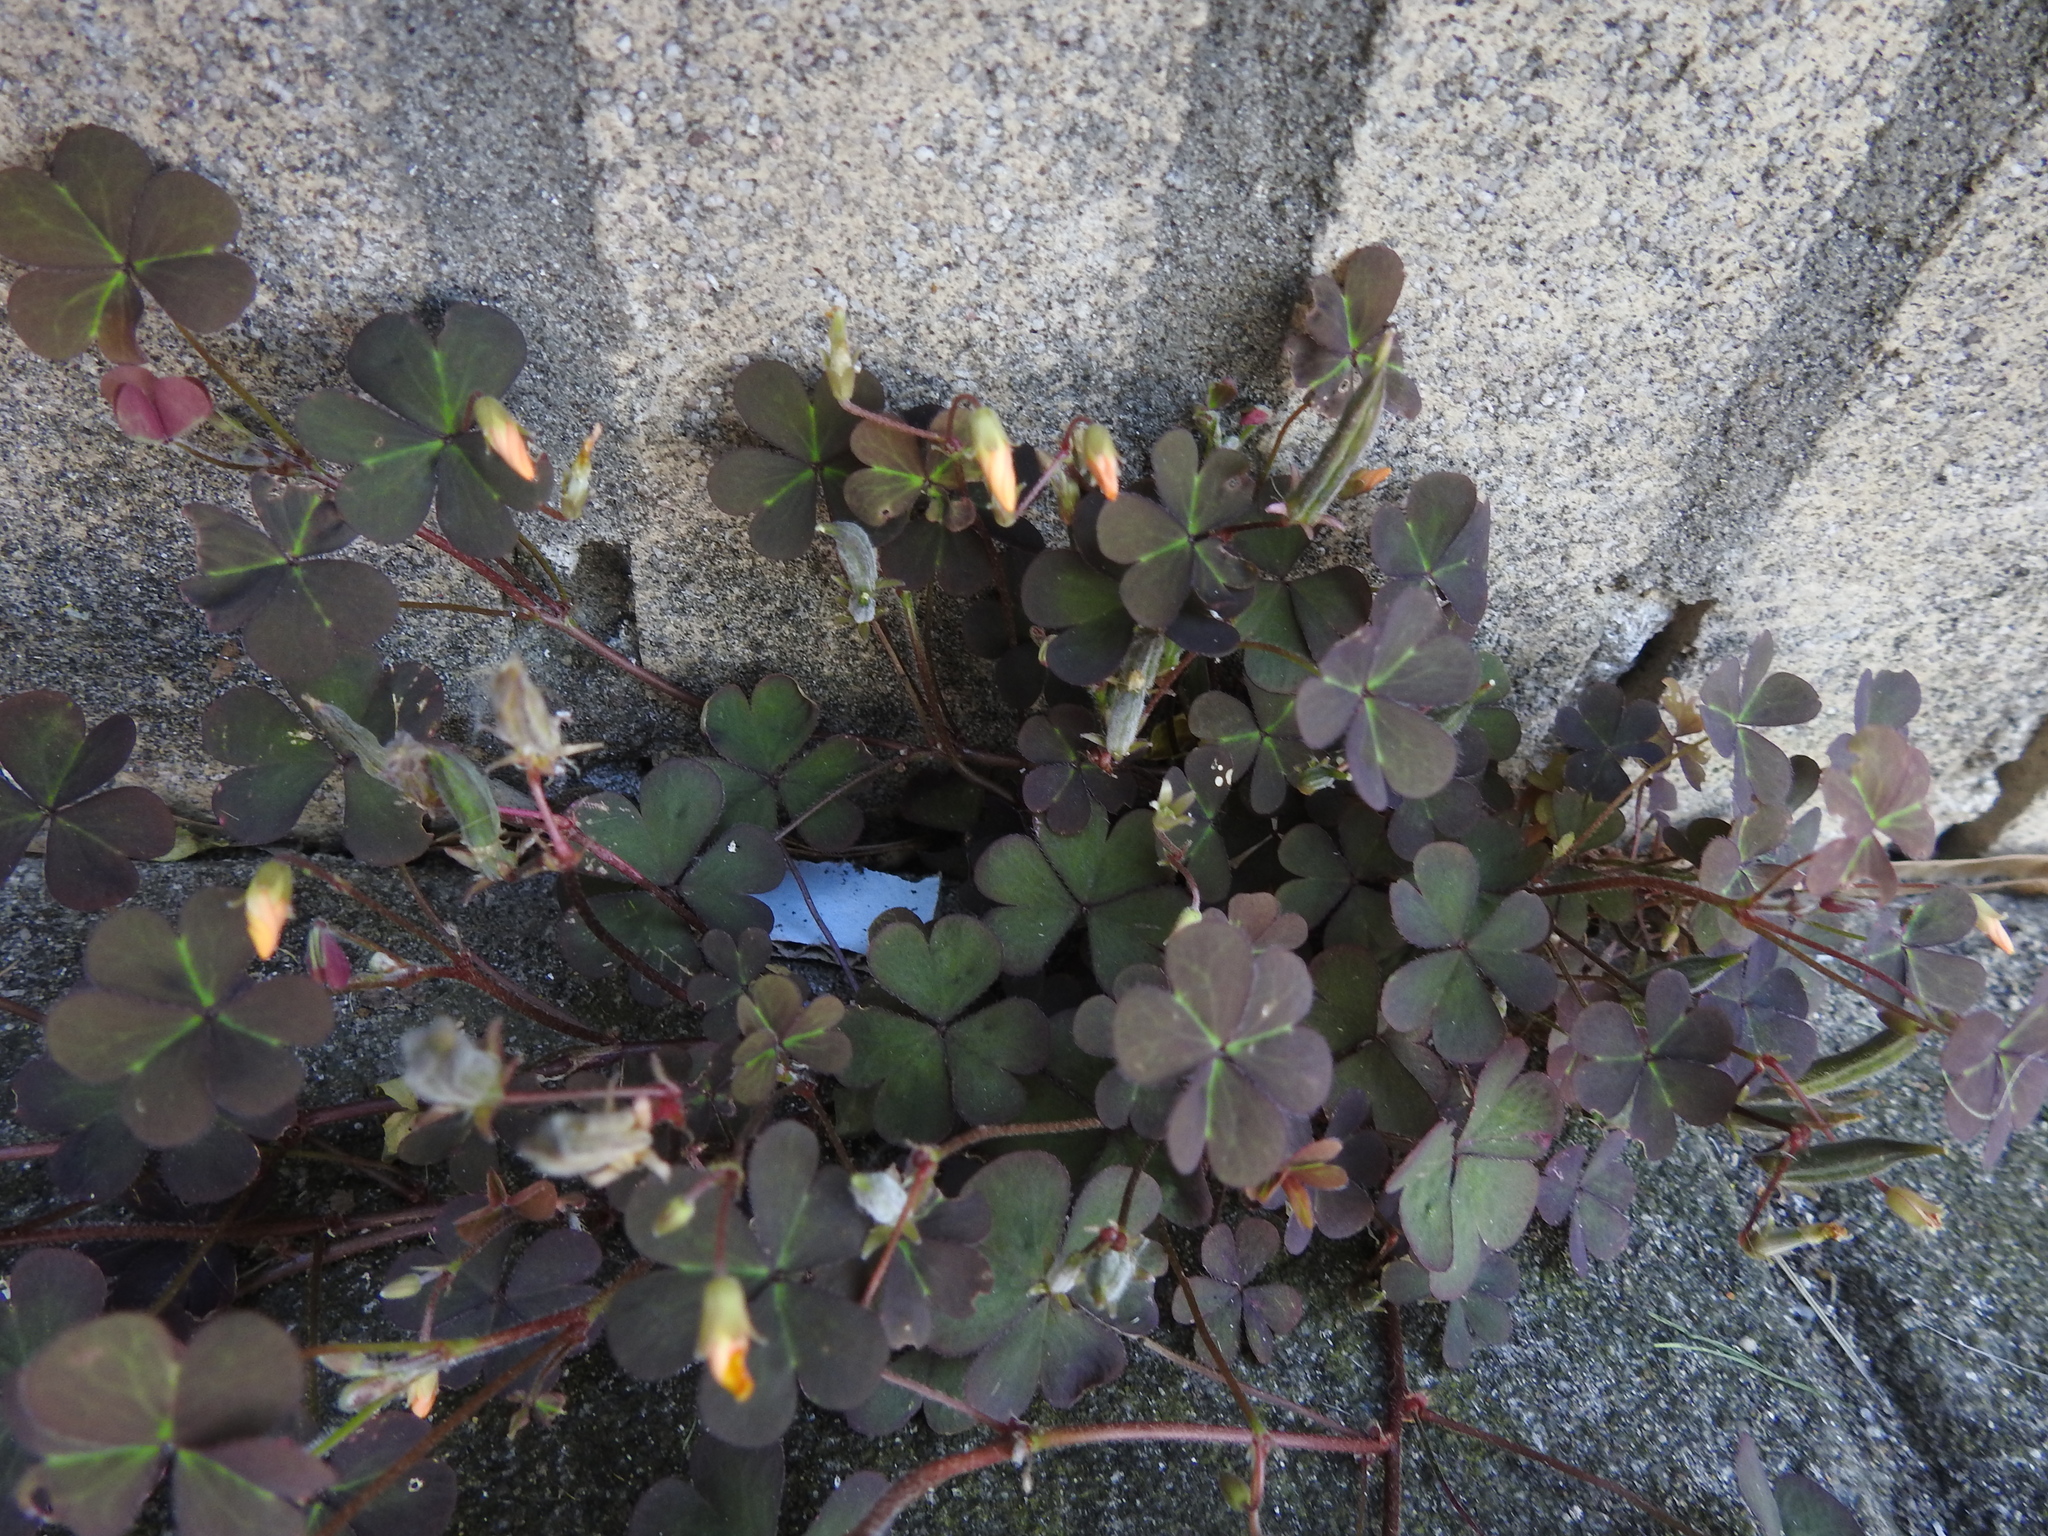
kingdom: Plantae
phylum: Tracheophyta
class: Magnoliopsida
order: Oxalidales
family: Oxalidaceae
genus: Oxalis
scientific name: Oxalis corniculata
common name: Procumbent yellow-sorrel
